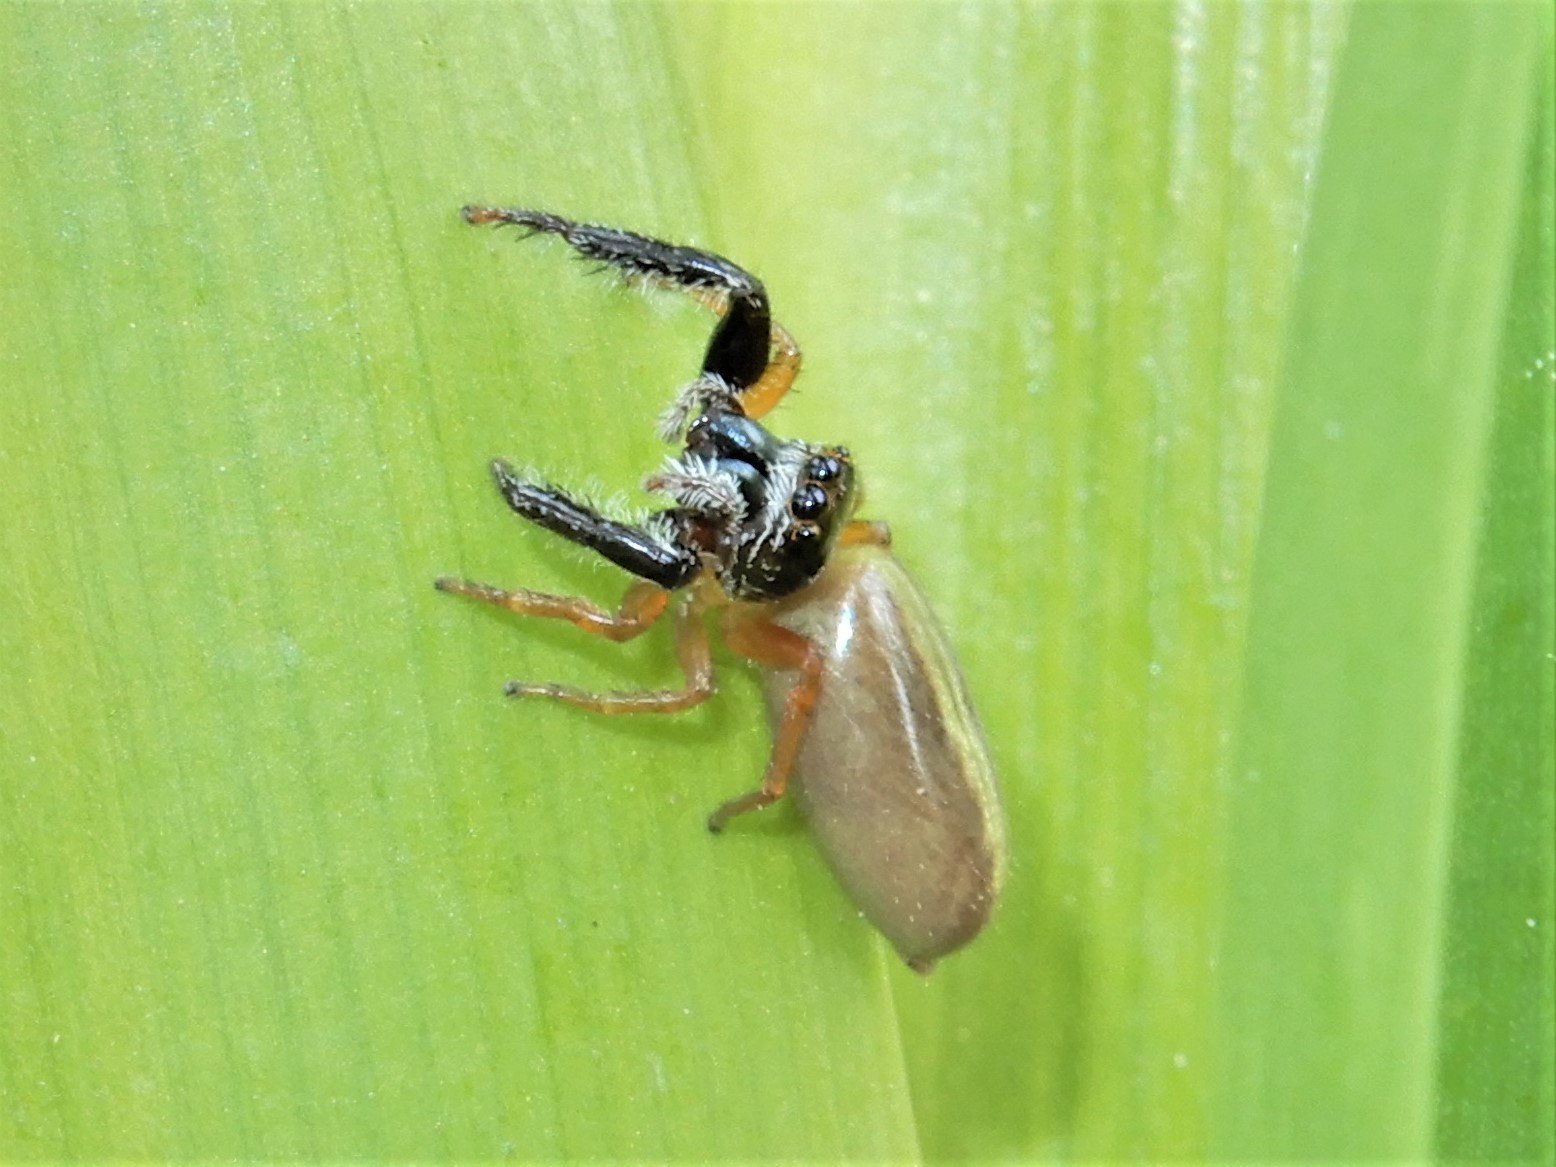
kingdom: Animalia
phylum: Arthropoda
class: Arachnida
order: Araneae
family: Salticidae
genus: Trite
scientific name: Trite planiceps
